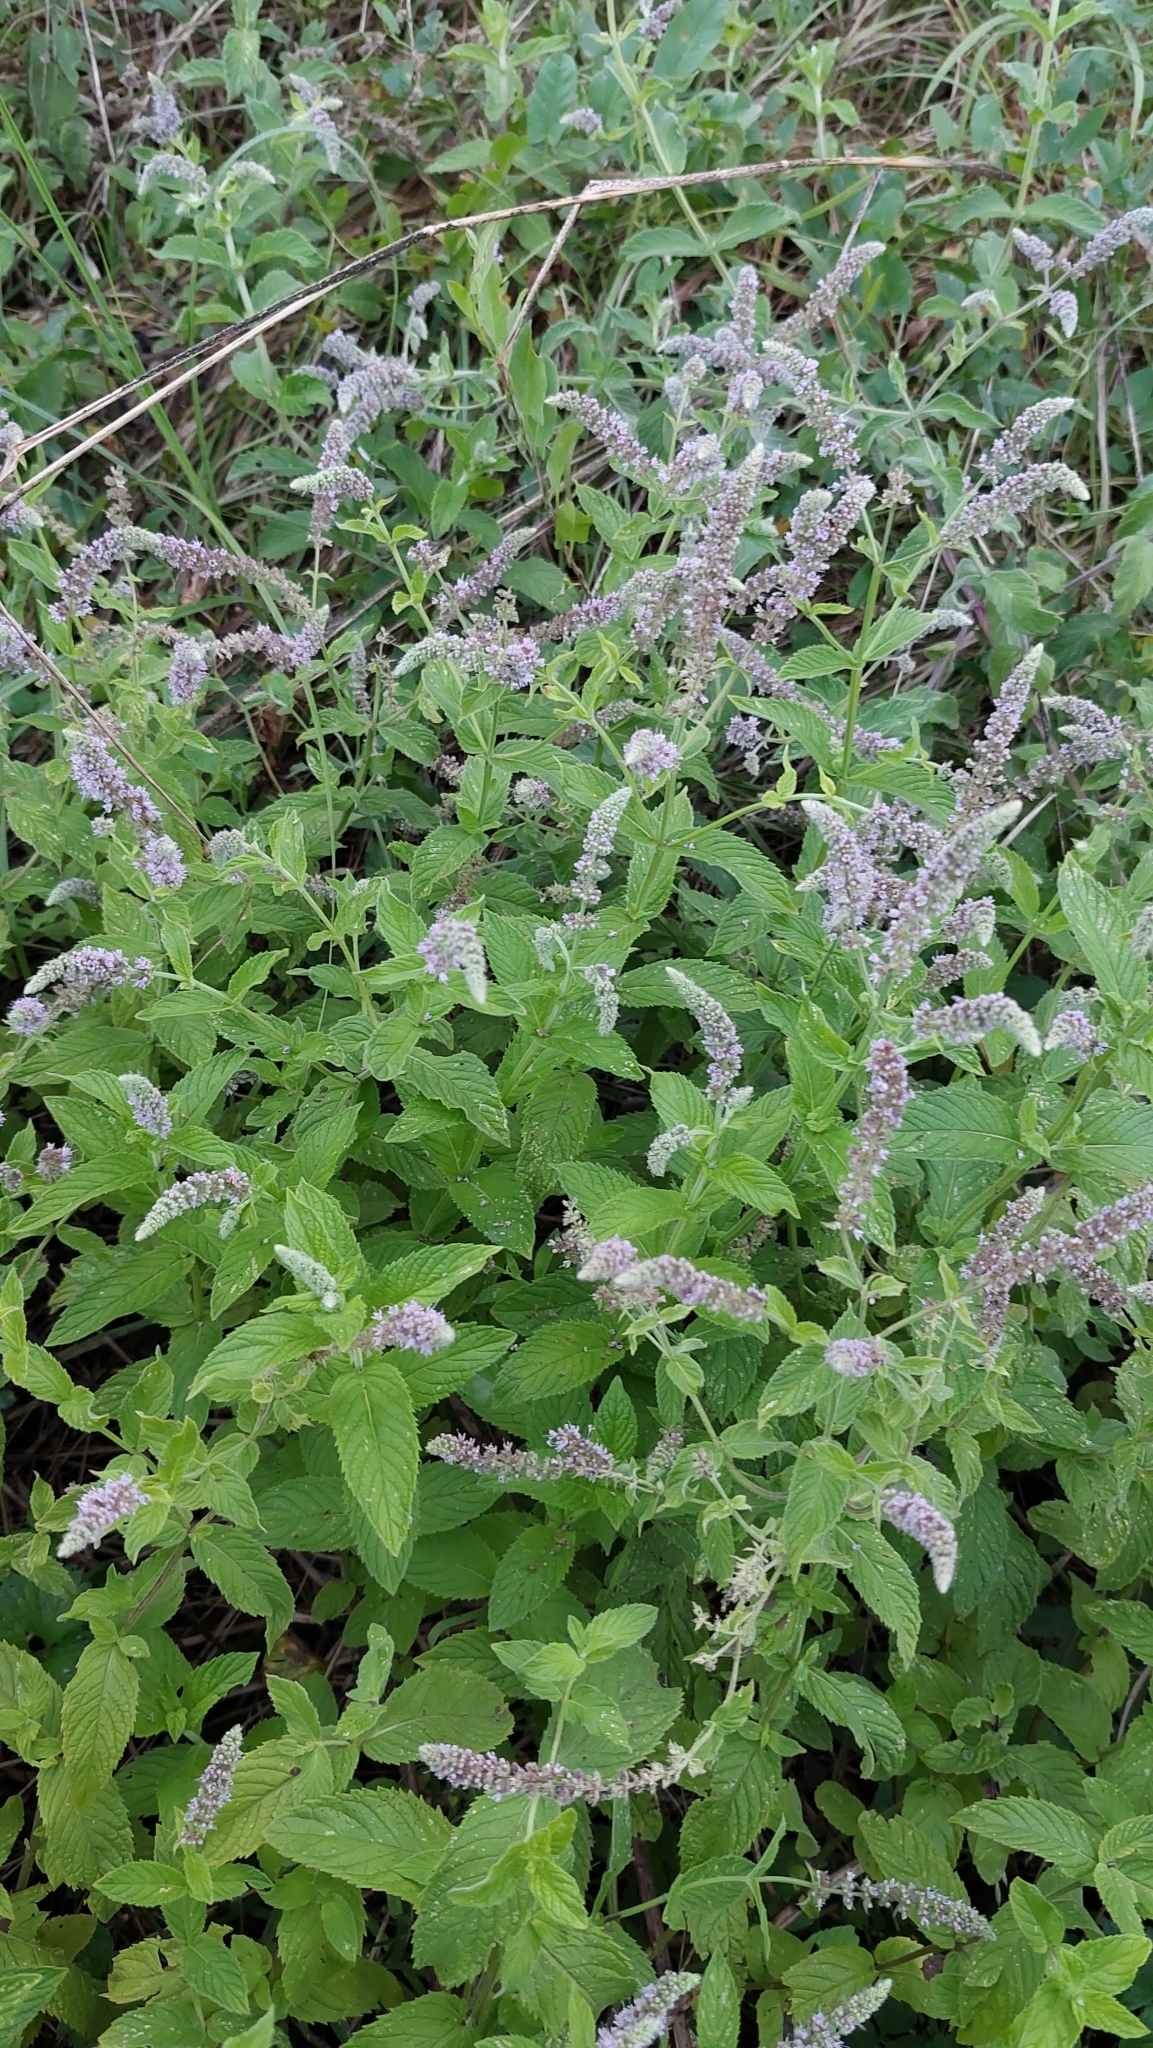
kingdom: Plantae
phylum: Tracheophyta
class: Magnoliopsida
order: Lamiales
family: Lamiaceae
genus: Mentha
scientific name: Mentha longifolia
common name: Horse mint
